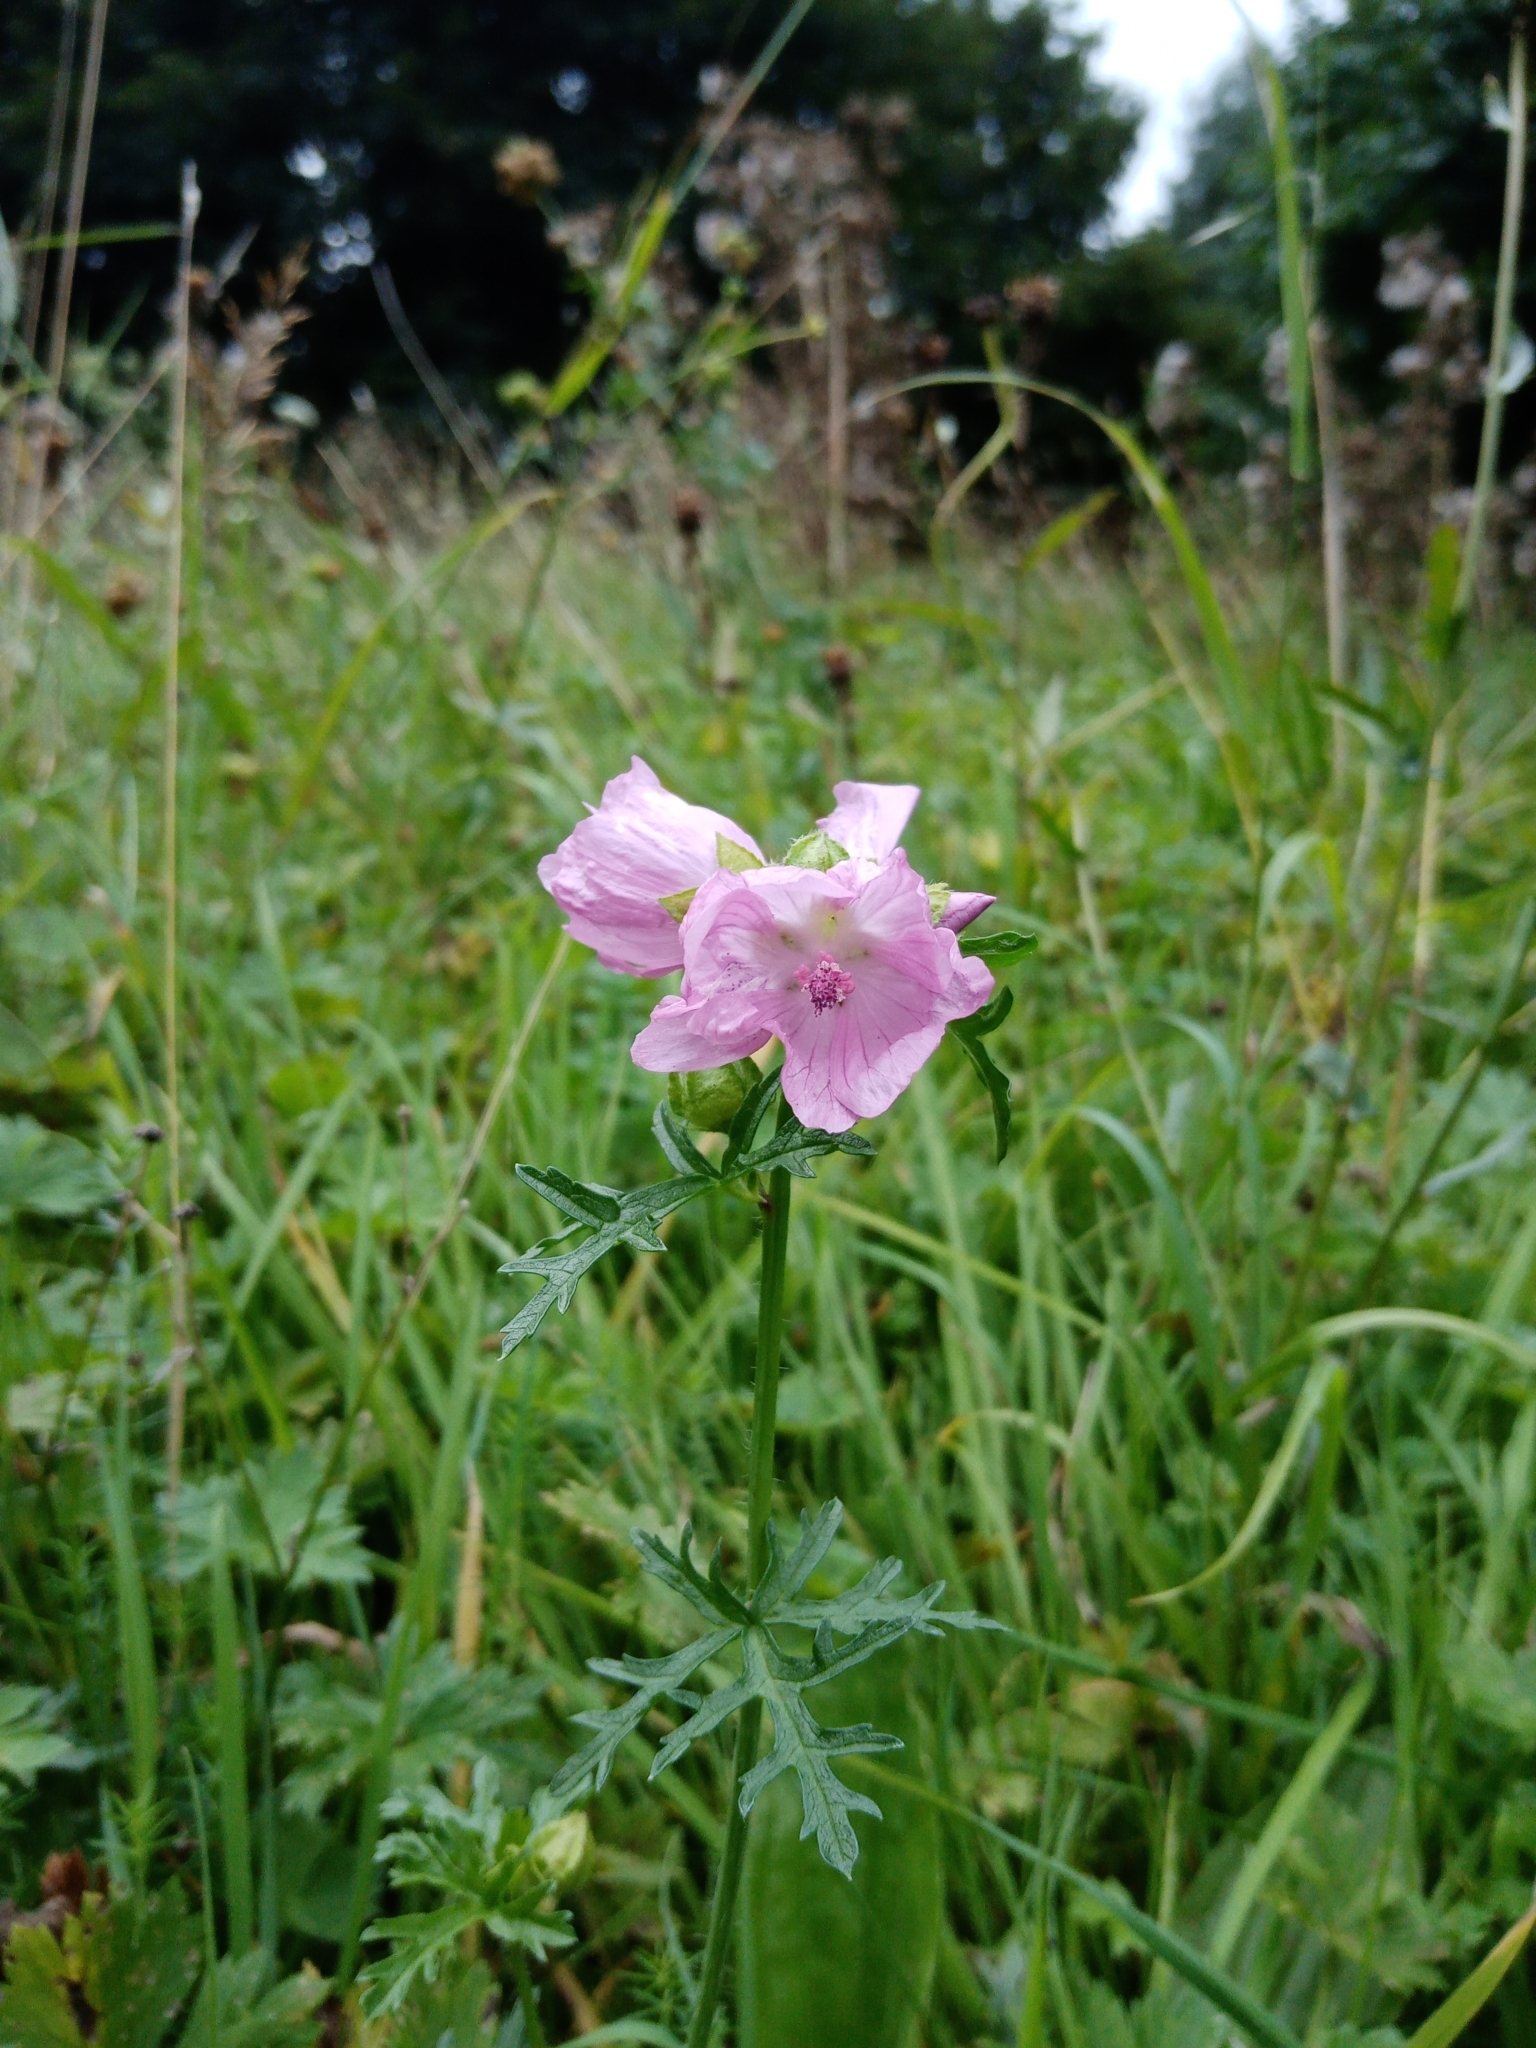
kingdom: Plantae
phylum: Tracheophyta
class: Magnoliopsida
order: Malvales
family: Malvaceae
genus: Malva
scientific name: Malva moschata
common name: Musk mallow
